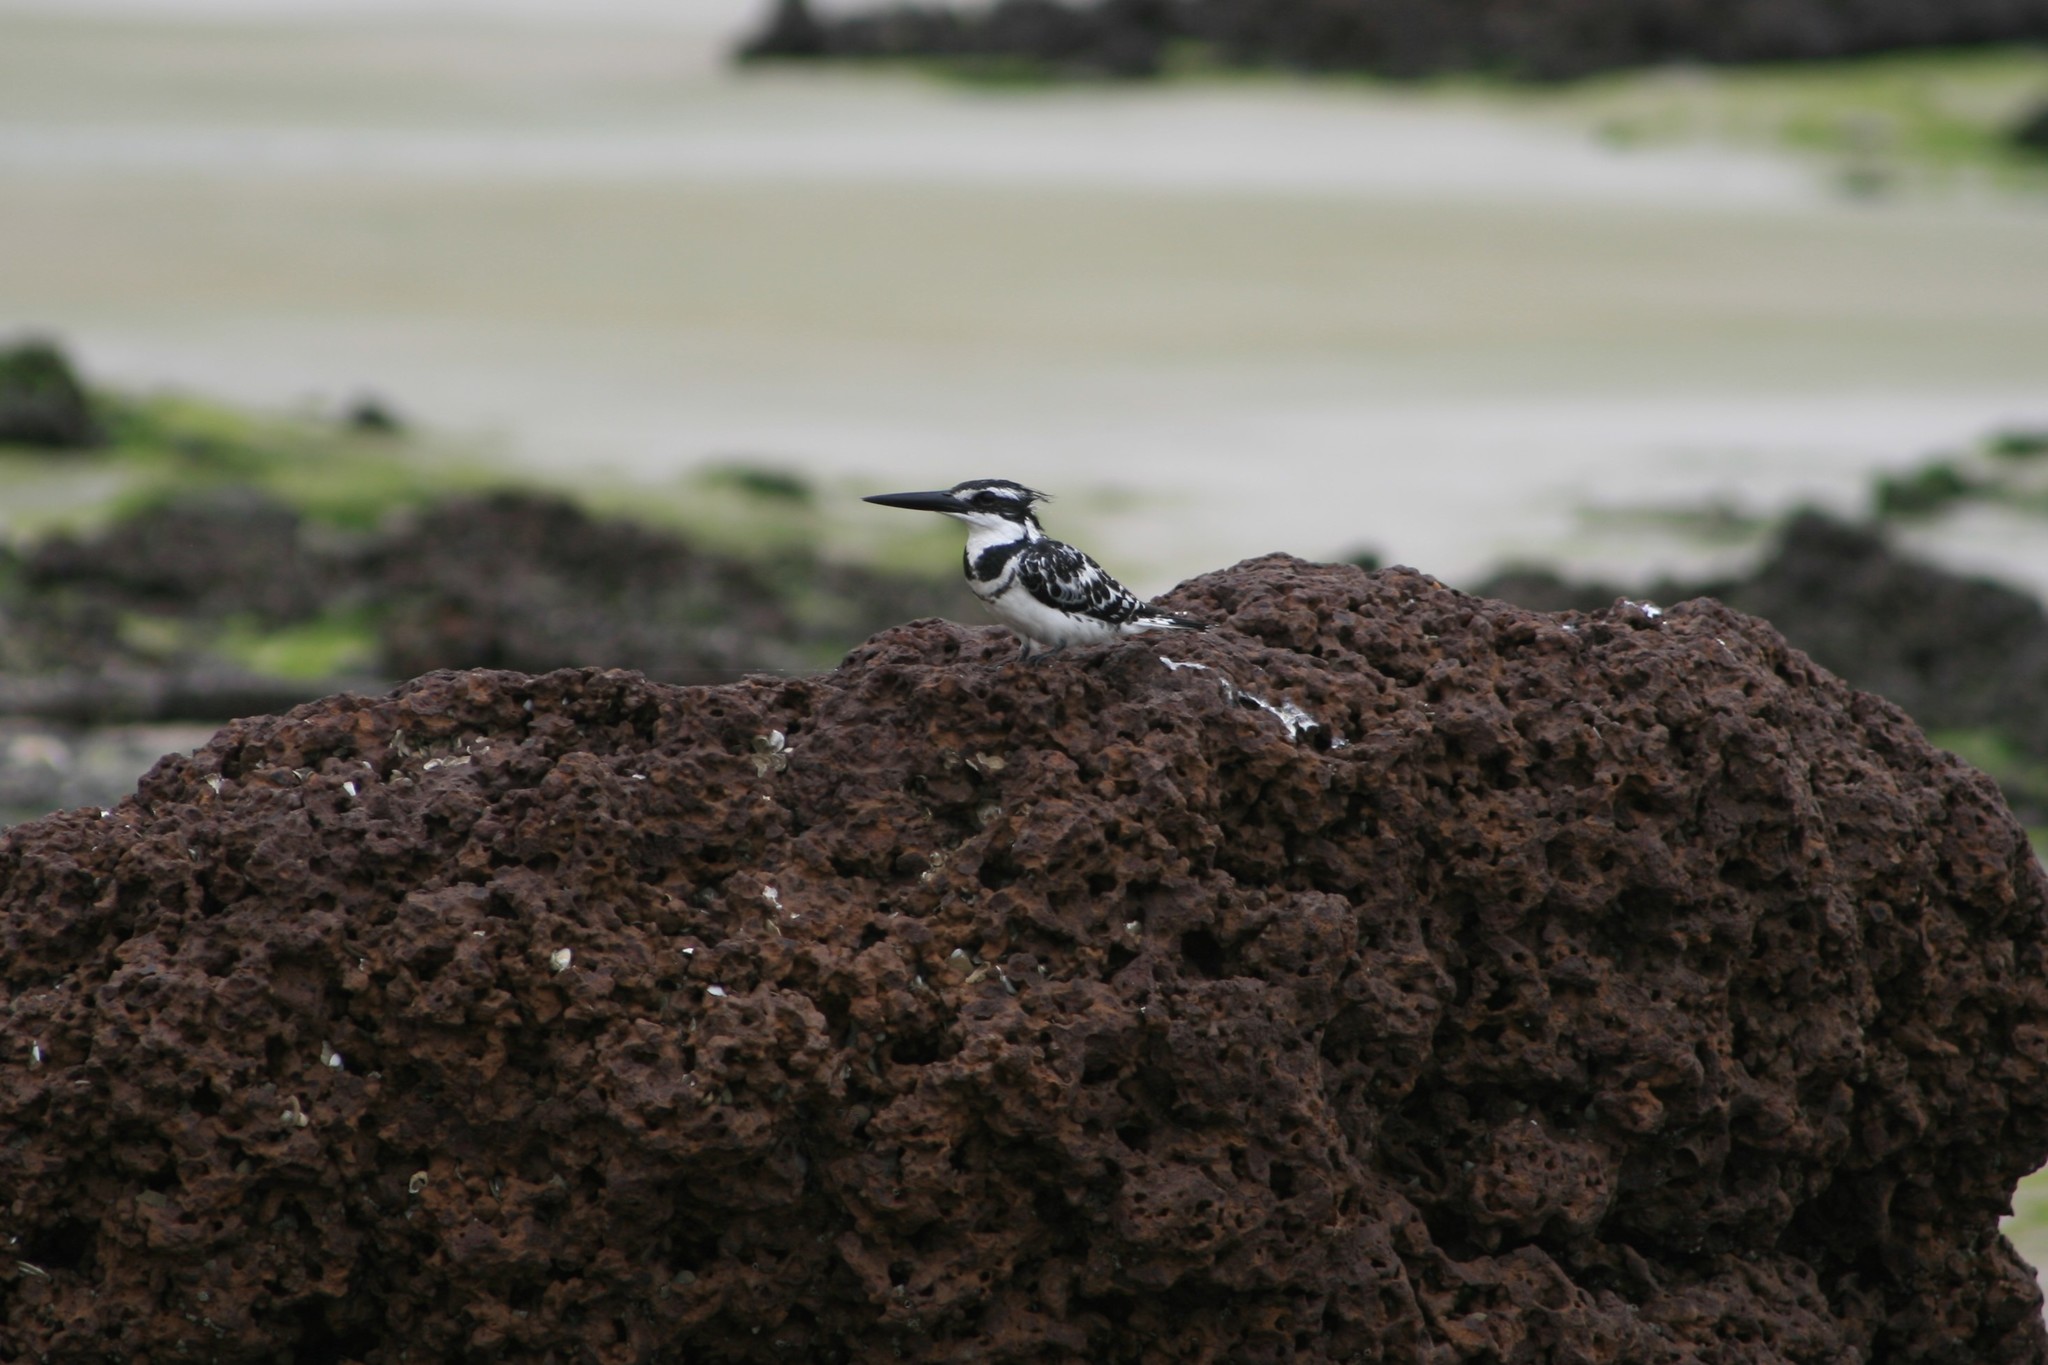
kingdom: Animalia
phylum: Chordata
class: Aves
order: Coraciiformes
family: Alcedinidae
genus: Ceryle
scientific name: Ceryle rudis
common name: Pied kingfisher
